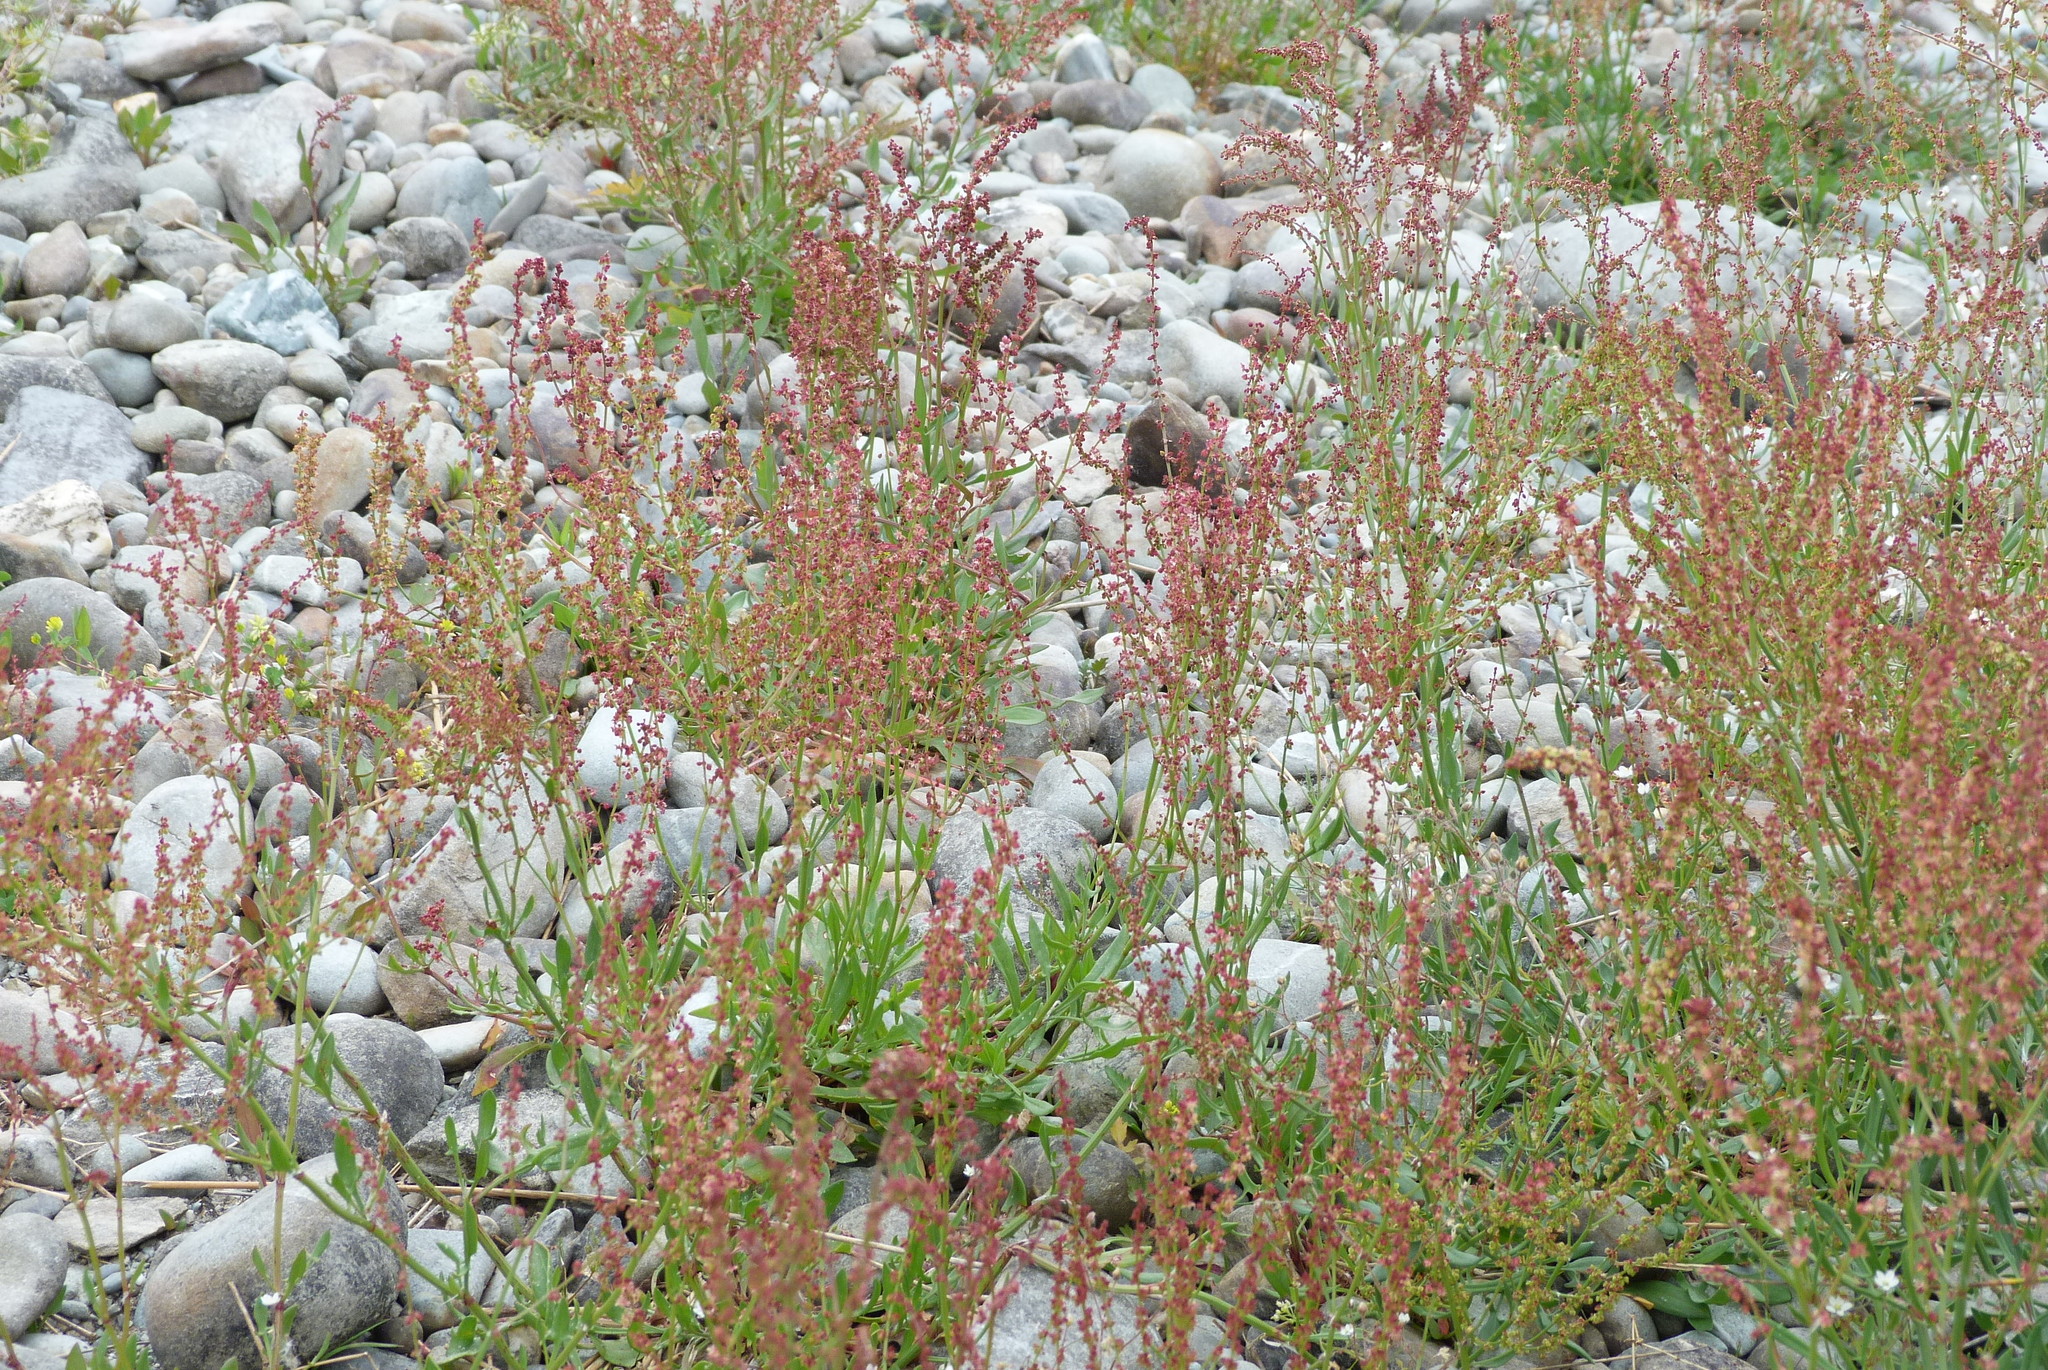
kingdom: Plantae
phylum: Tracheophyta
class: Magnoliopsida
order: Caryophyllales
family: Polygonaceae
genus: Rumex
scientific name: Rumex acetosella
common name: Common sheep sorrel
